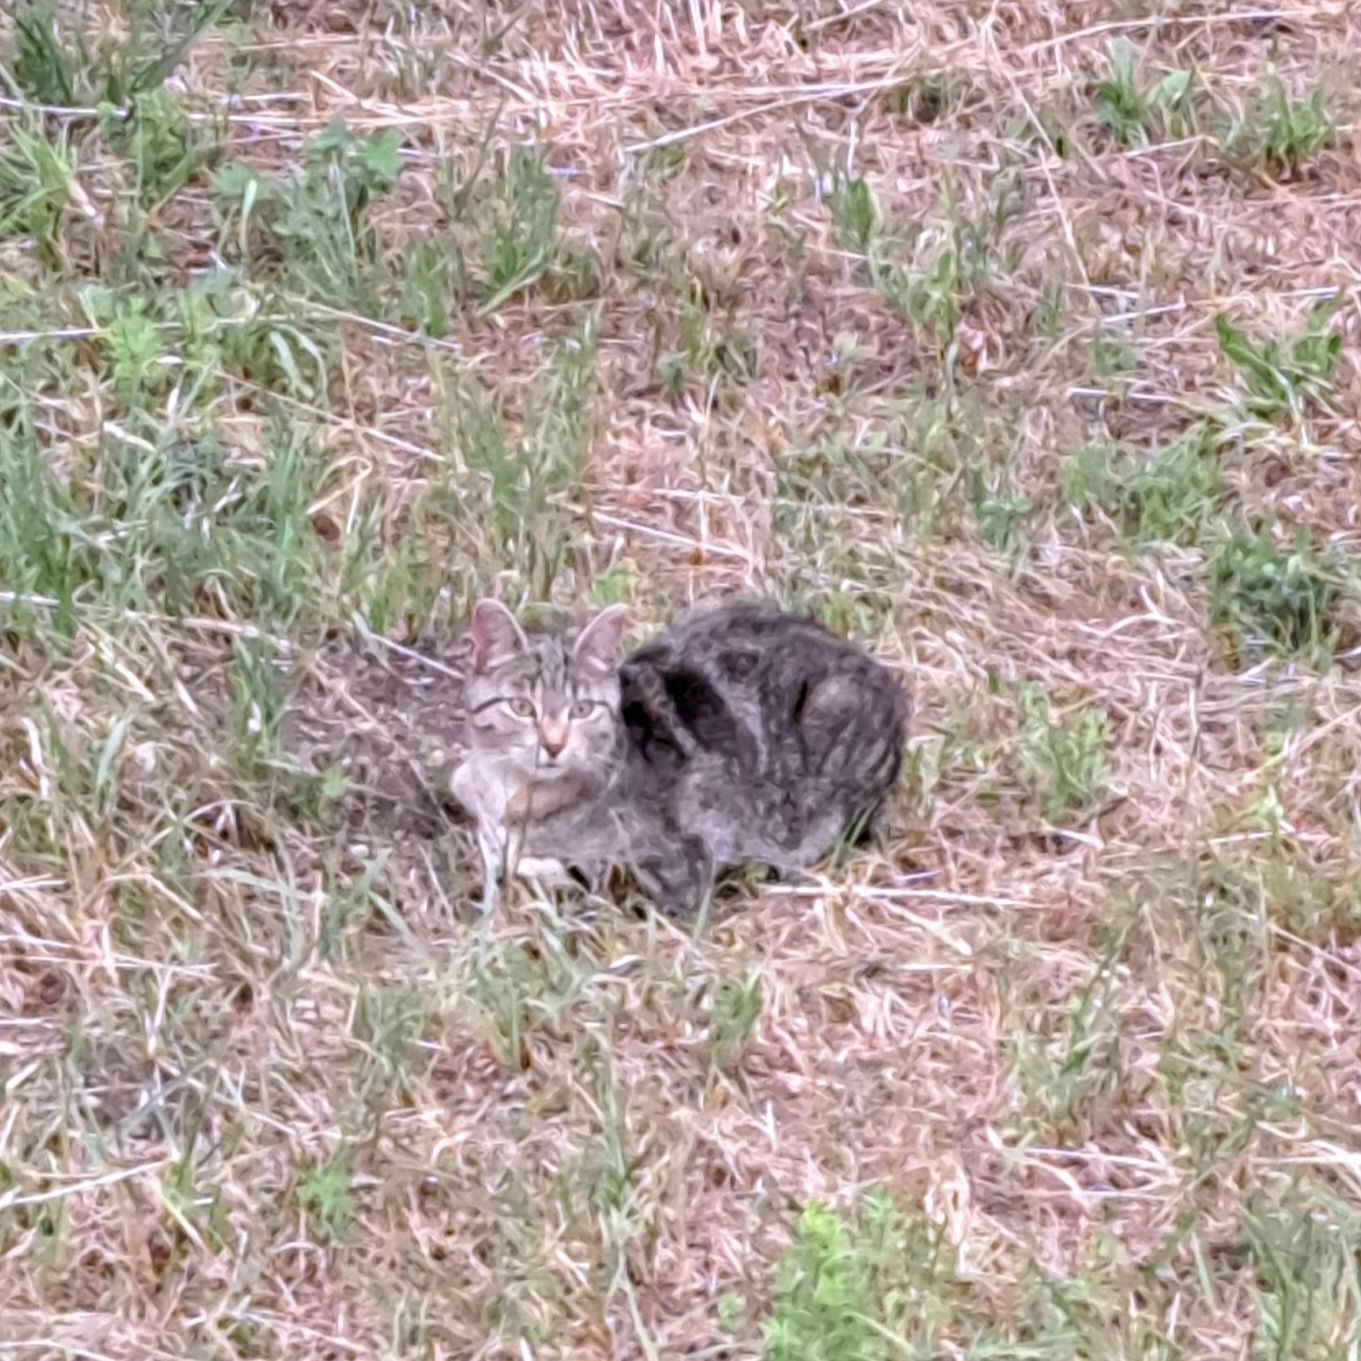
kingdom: Animalia
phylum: Chordata
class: Mammalia
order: Carnivora
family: Felidae
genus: Felis
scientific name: Felis catus
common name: Domestic cat
